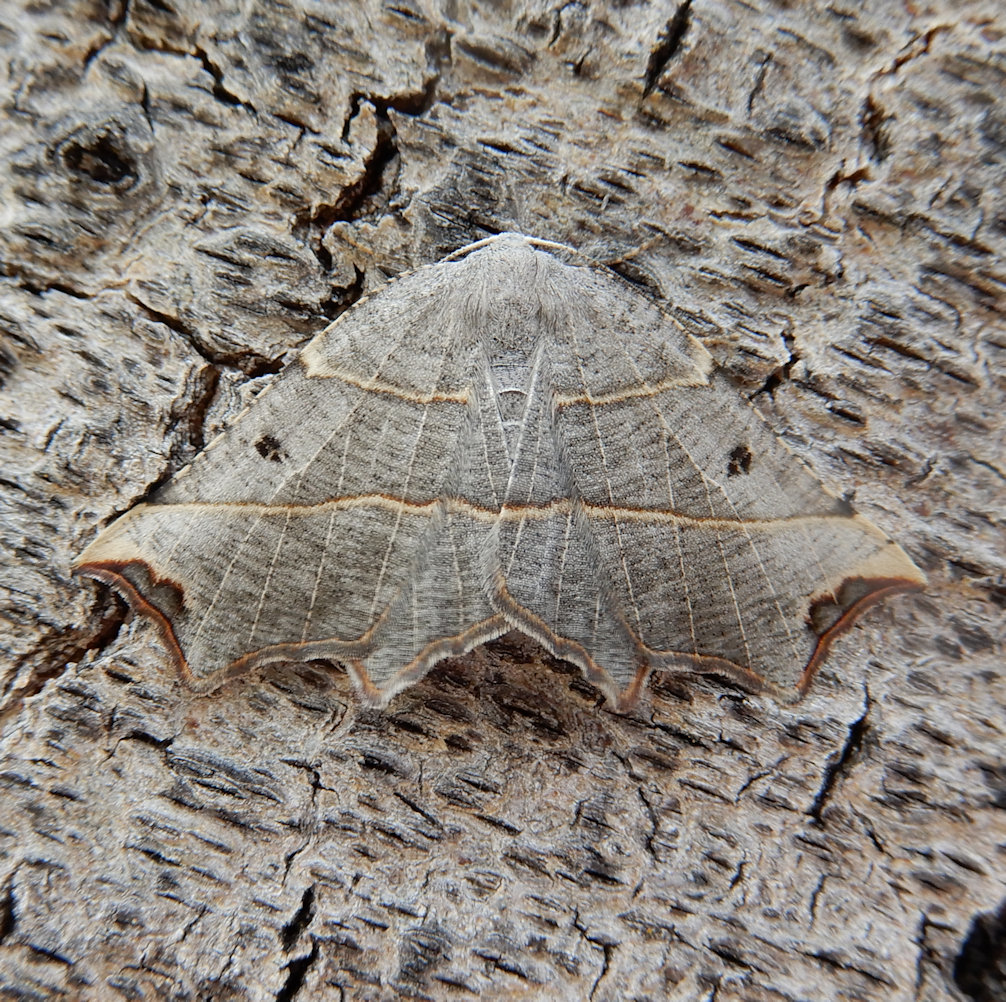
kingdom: Animalia
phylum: Arthropoda
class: Insecta
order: Lepidoptera
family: Geometridae
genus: Metanema
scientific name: Metanema inatomaria
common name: Pale metanema
